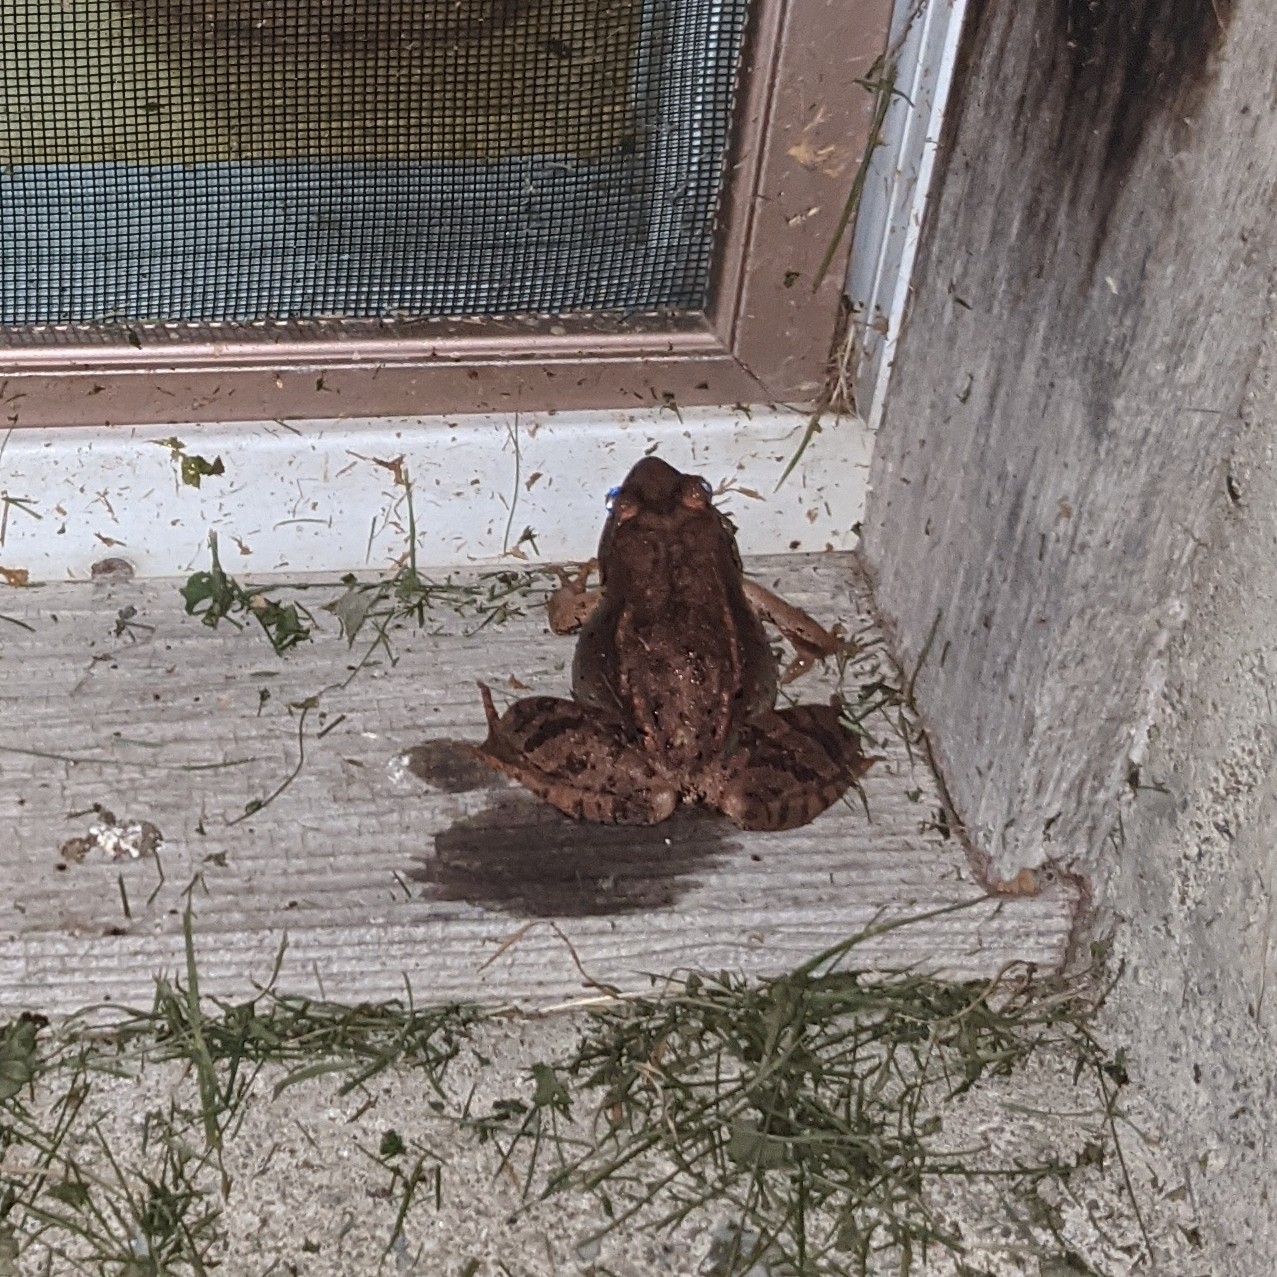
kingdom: Animalia
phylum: Chordata
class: Amphibia
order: Anura
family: Ranidae
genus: Lithobates
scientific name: Lithobates sylvaticus
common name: Wood frog
